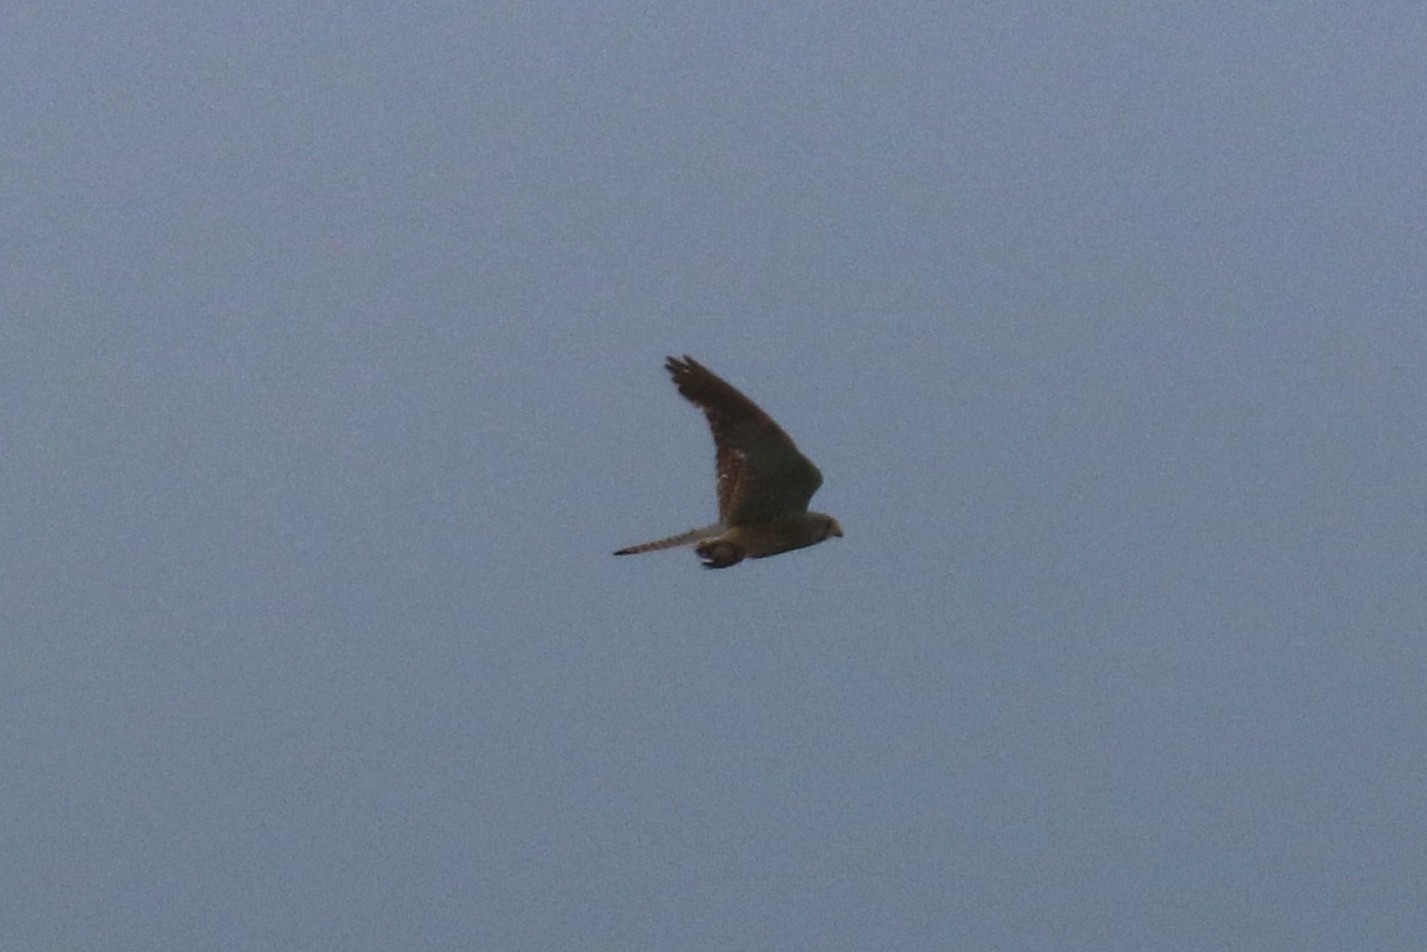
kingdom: Animalia
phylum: Chordata
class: Aves
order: Falconiformes
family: Falconidae
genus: Falco
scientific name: Falco tinnunculus
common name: Common kestrel
